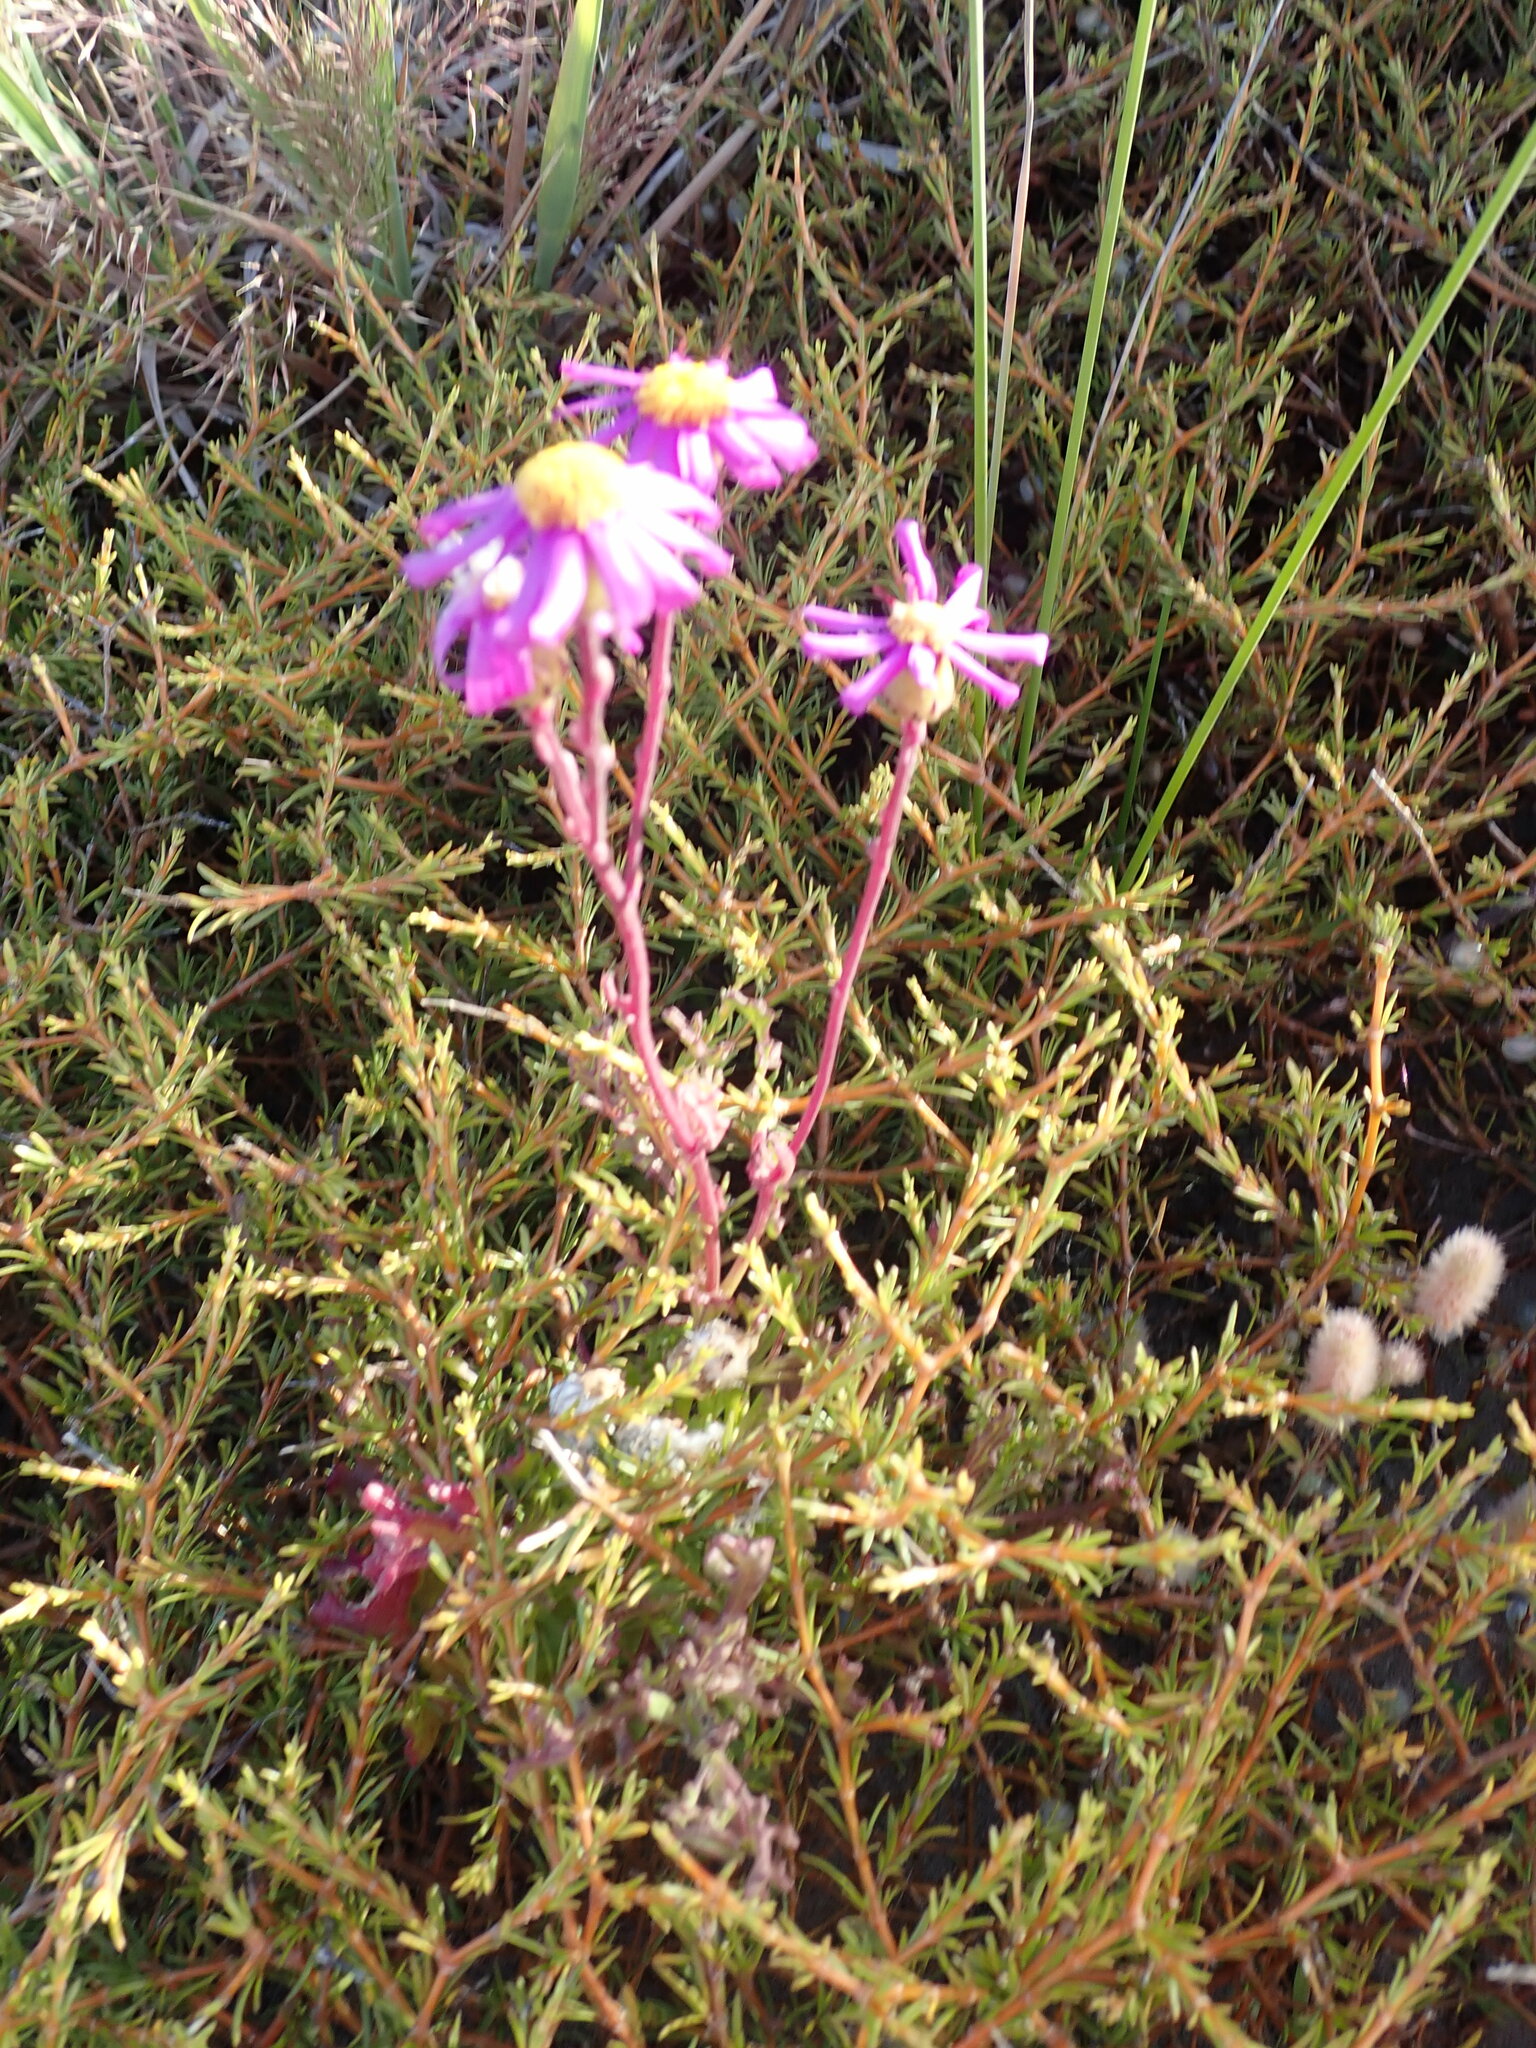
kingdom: Plantae
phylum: Tracheophyta
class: Magnoliopsida
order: Asterales
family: Asteraceae
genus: Senecio
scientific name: Senecio elegans
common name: Purple groundsel
